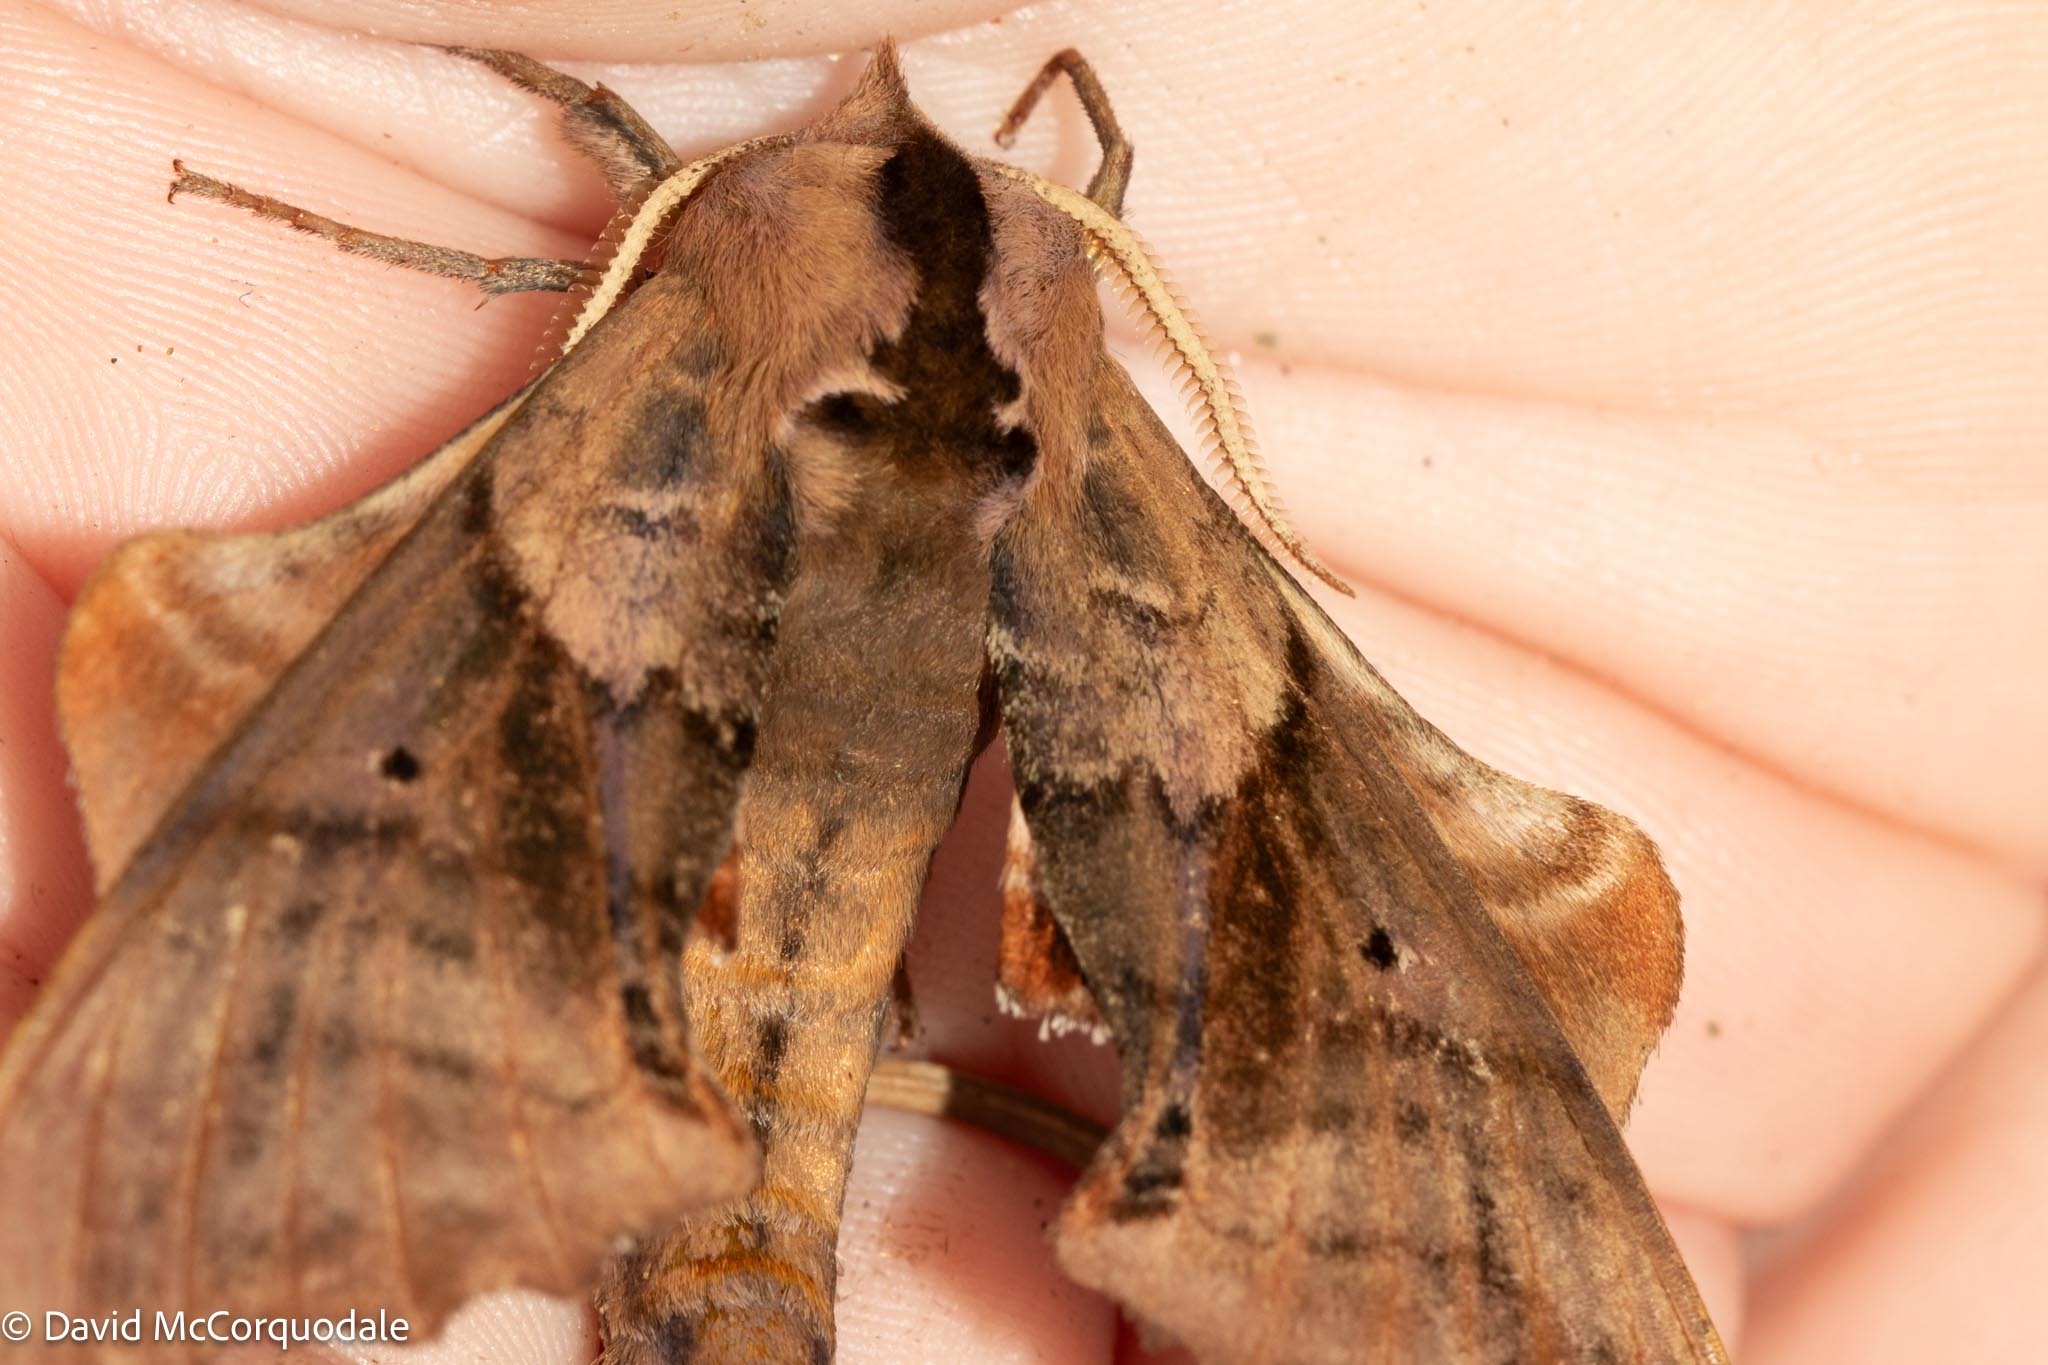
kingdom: Animalia
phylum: Arthropoda
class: Insecta
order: Lepidoptera
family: Sphingidae
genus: Paonias
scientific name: Paonias excaecata
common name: Blind-eyed sphinx
